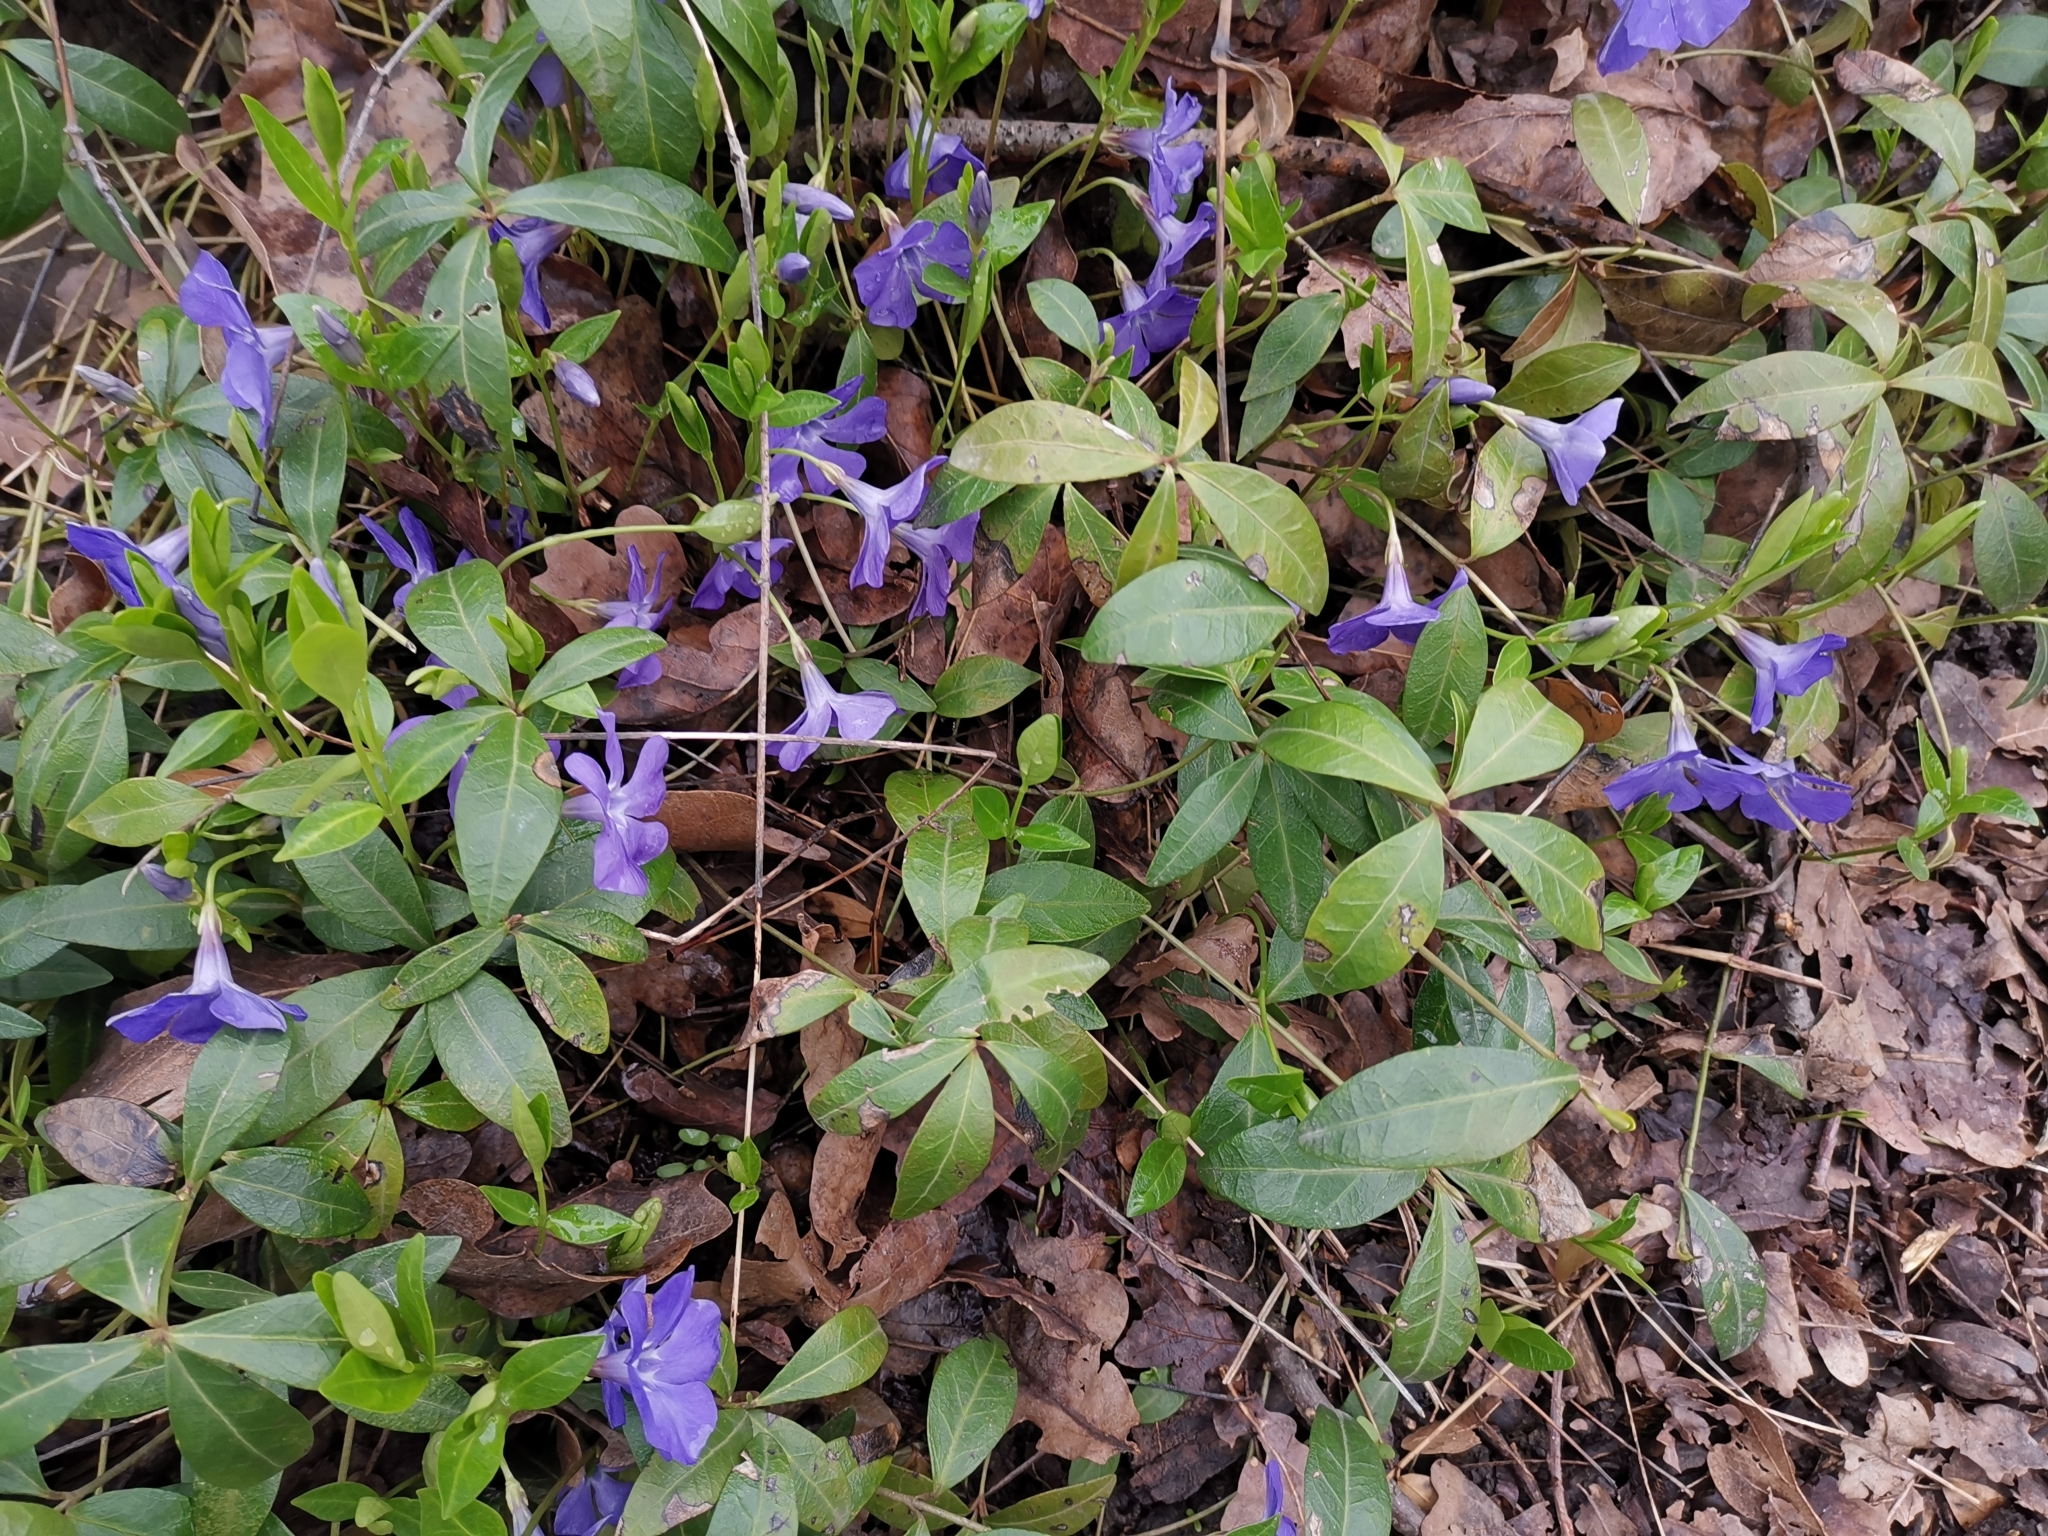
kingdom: Plantae
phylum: Tracheophyta
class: Magnoliopsida
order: Gentianales
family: Apocynaceae
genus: Vinca
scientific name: Vinca minor
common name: Lesser periwinkle
